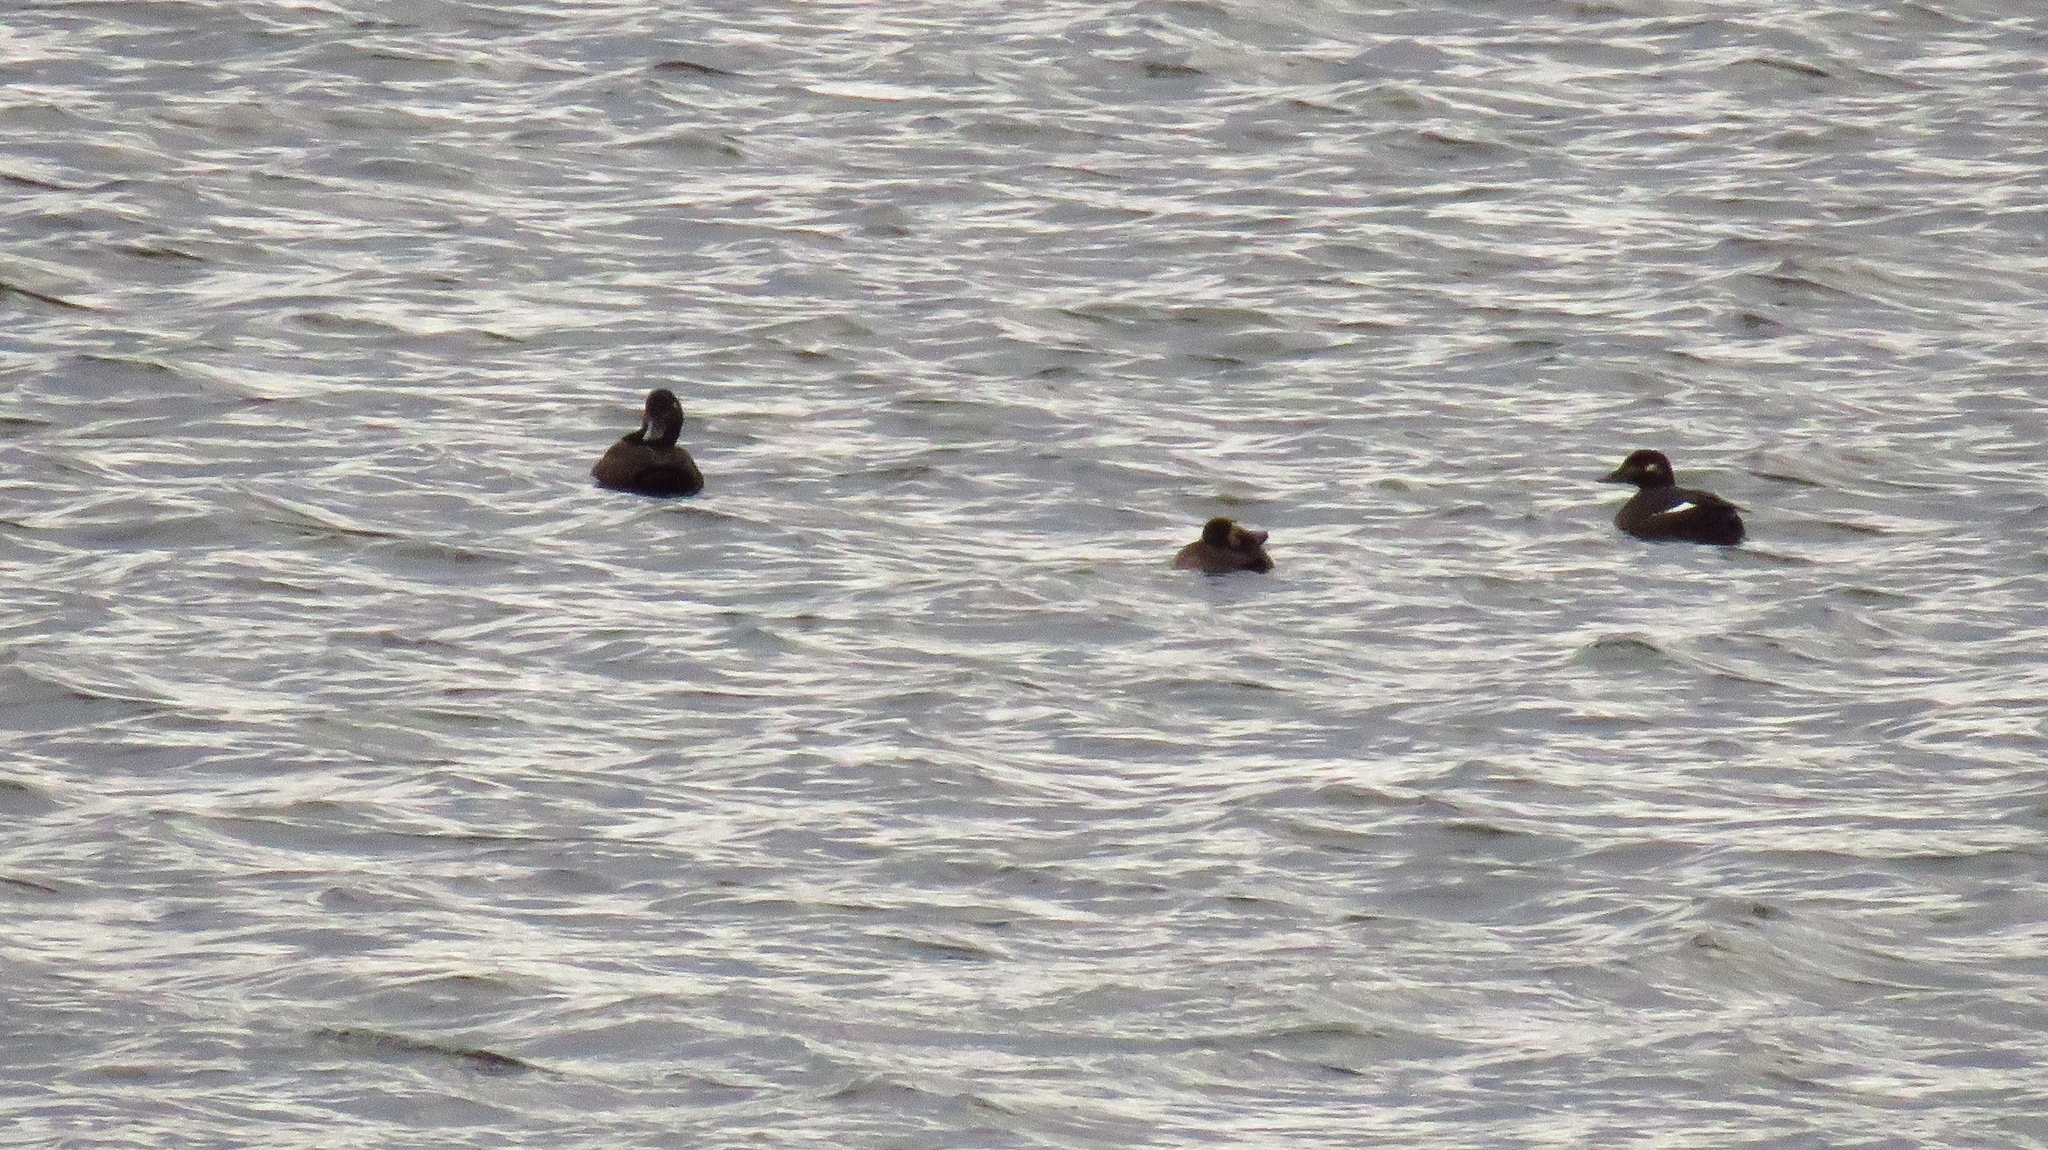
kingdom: Animalia
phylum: Chordata
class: Aves
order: Anseriformes
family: Anatidae
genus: Melanitta
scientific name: Melanitta fusca
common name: Velvet scoter
